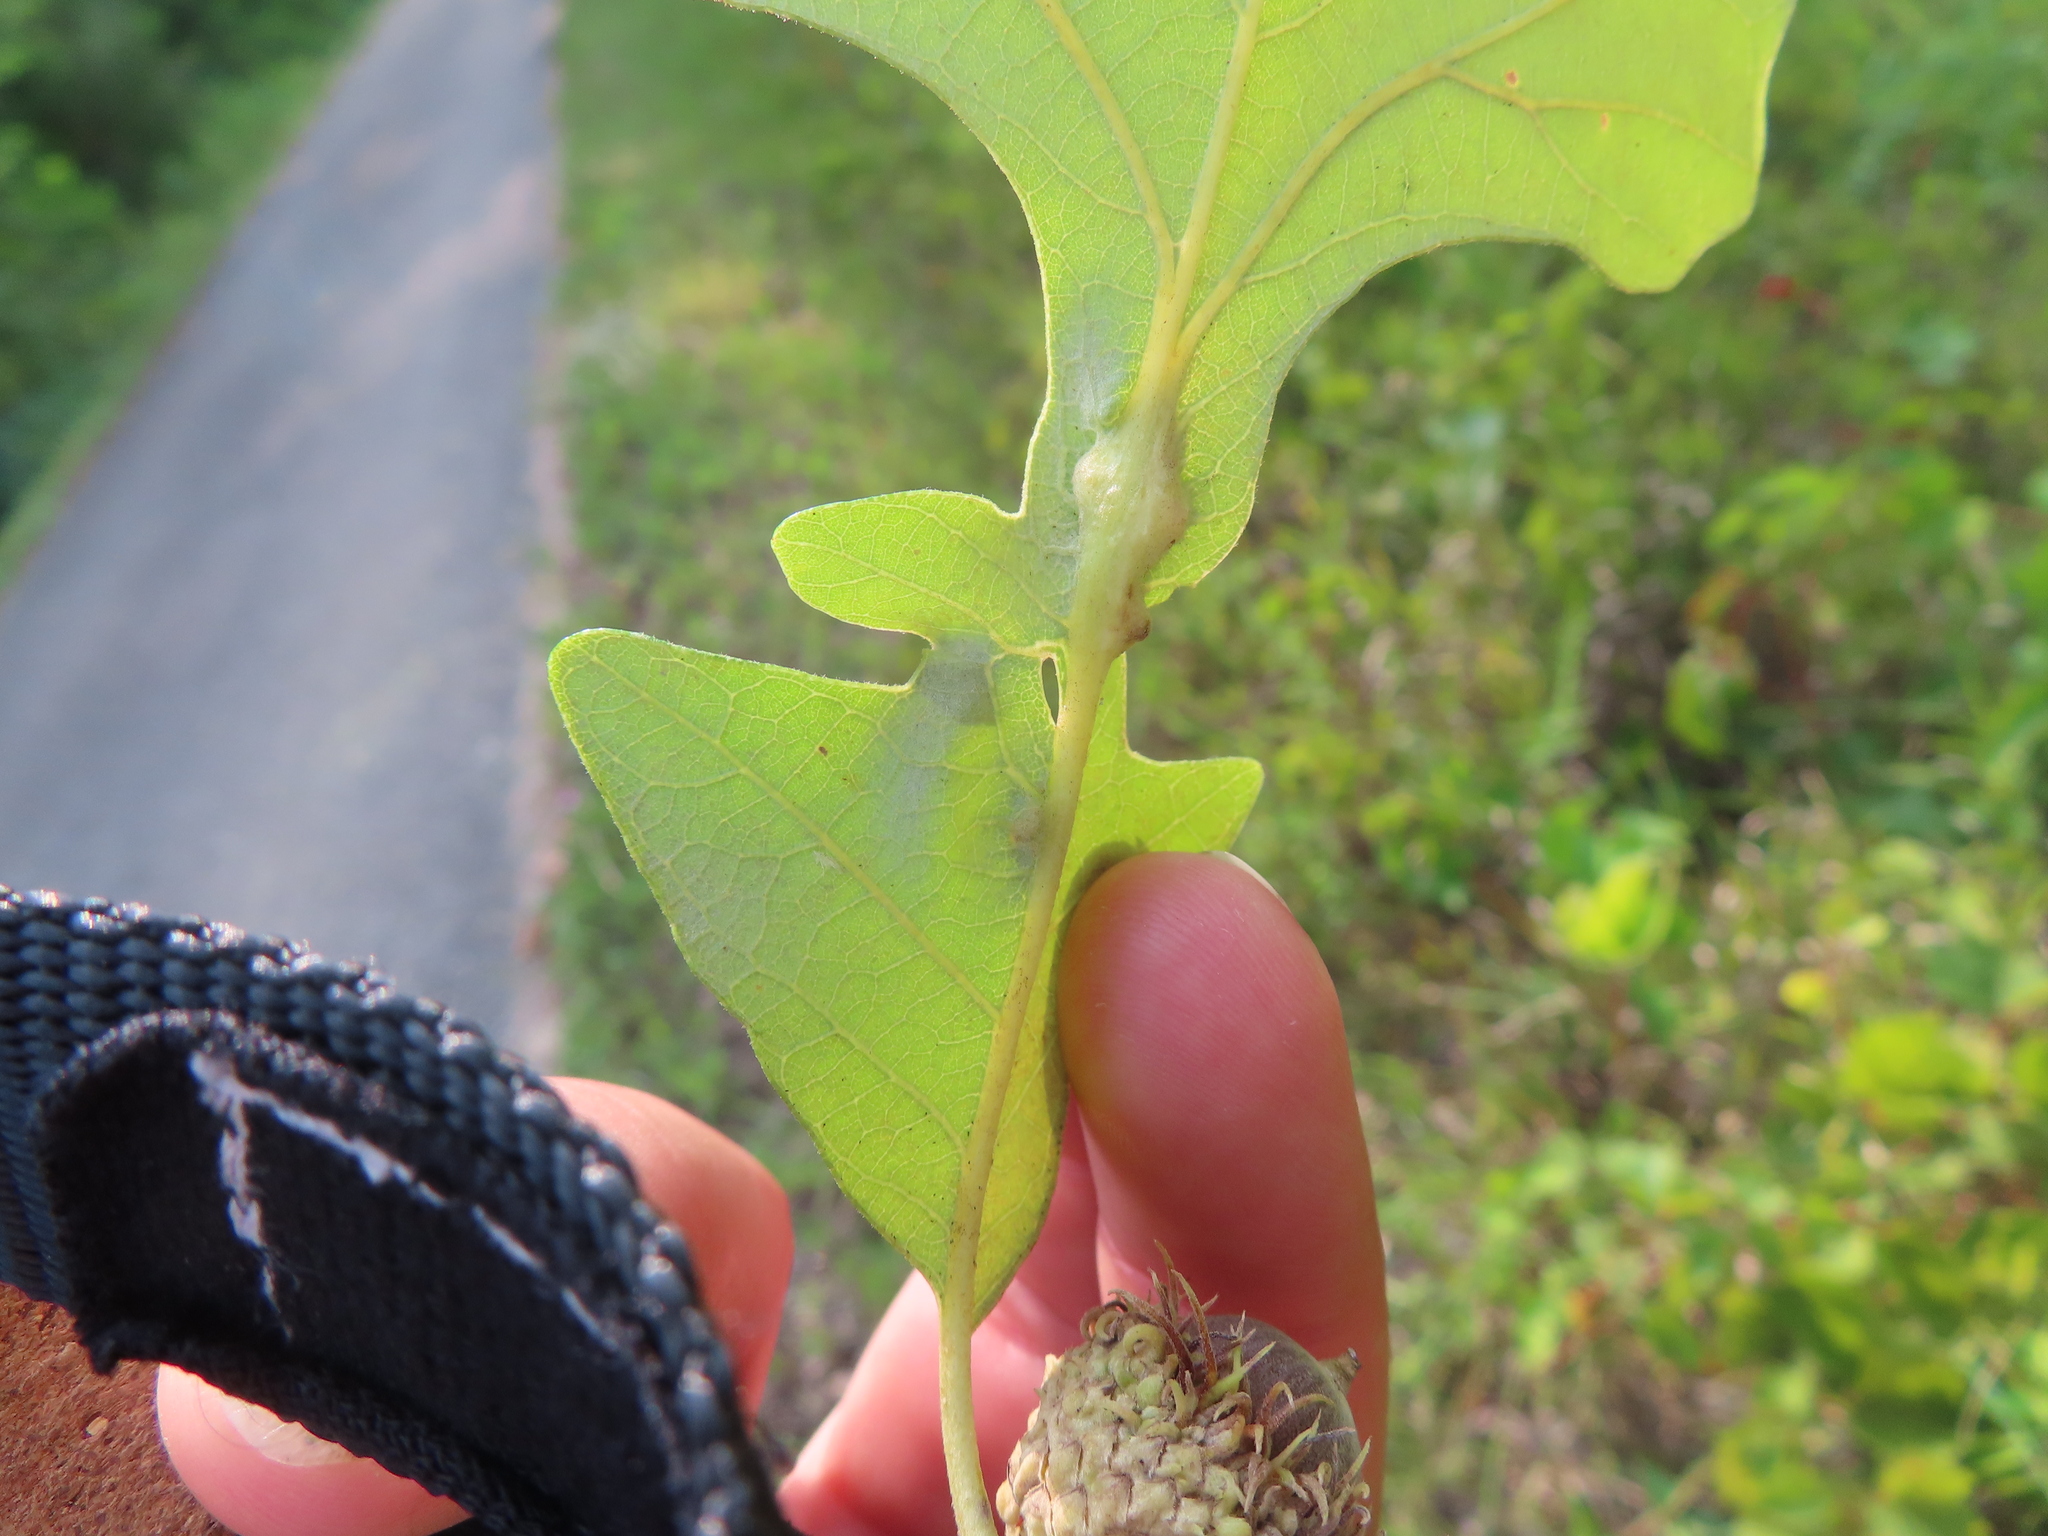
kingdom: Animalia
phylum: Arthropoda
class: Insecta
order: Hymenoptera
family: Cynipidae
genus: Bassettia
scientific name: Bassettia flavipes
